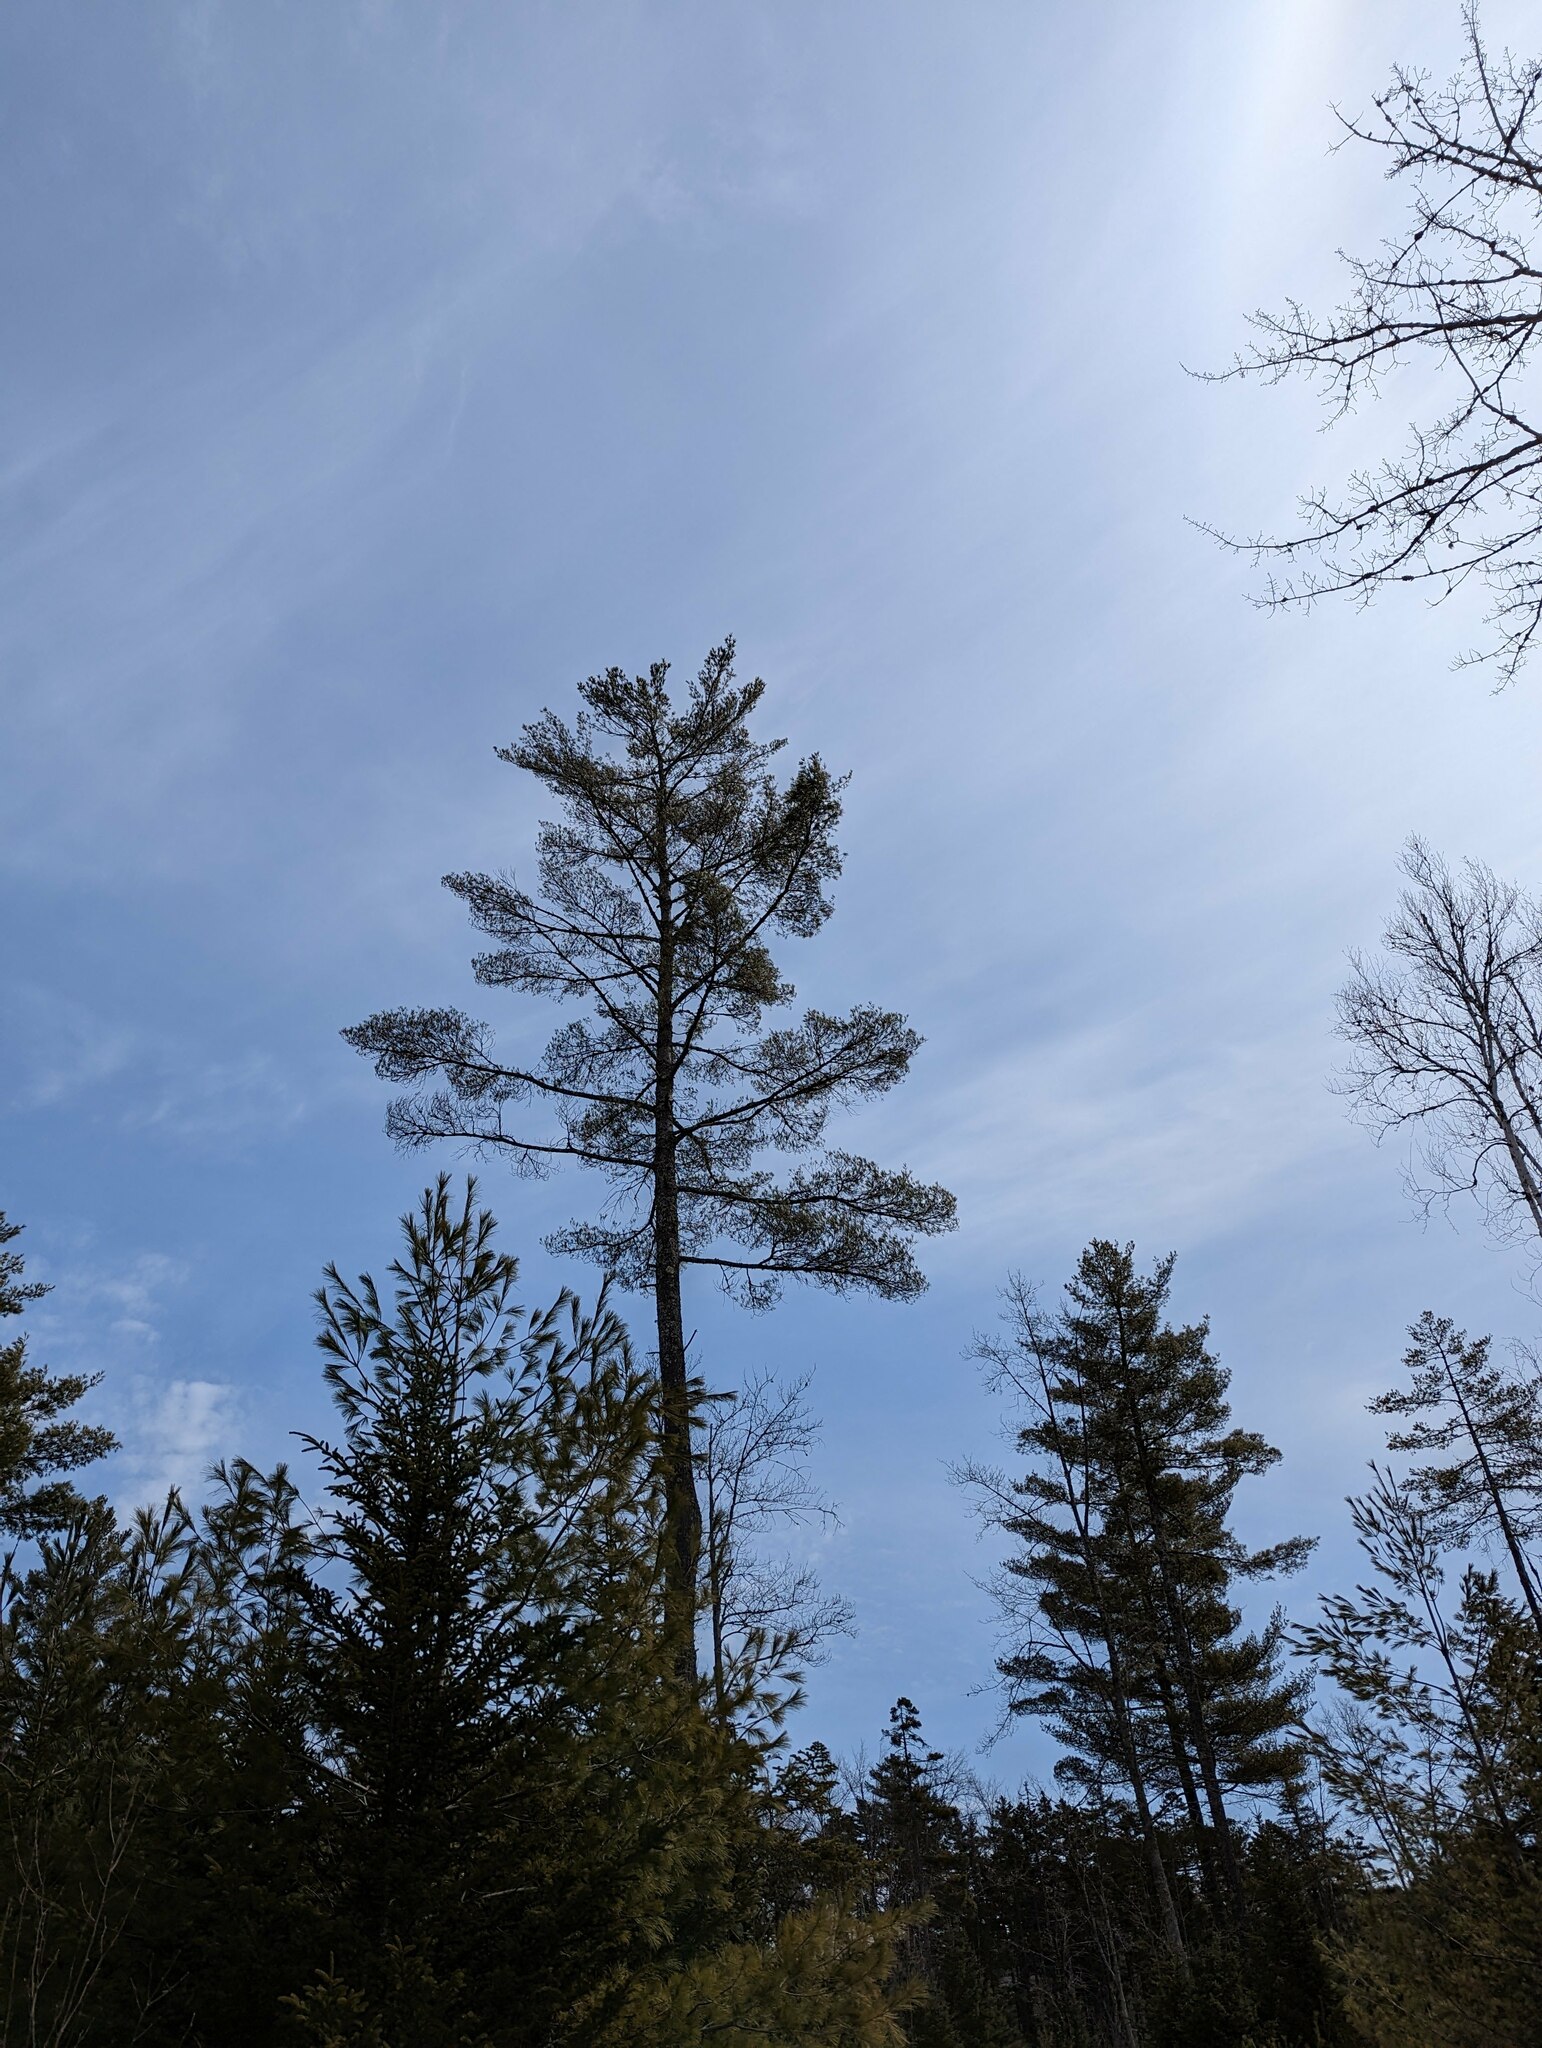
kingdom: Plantae
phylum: Tracheophyta
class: Pinopsida
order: Pinales
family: Pinaceae
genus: Pinus
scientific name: Pinus strobus
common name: Weymouth pine
